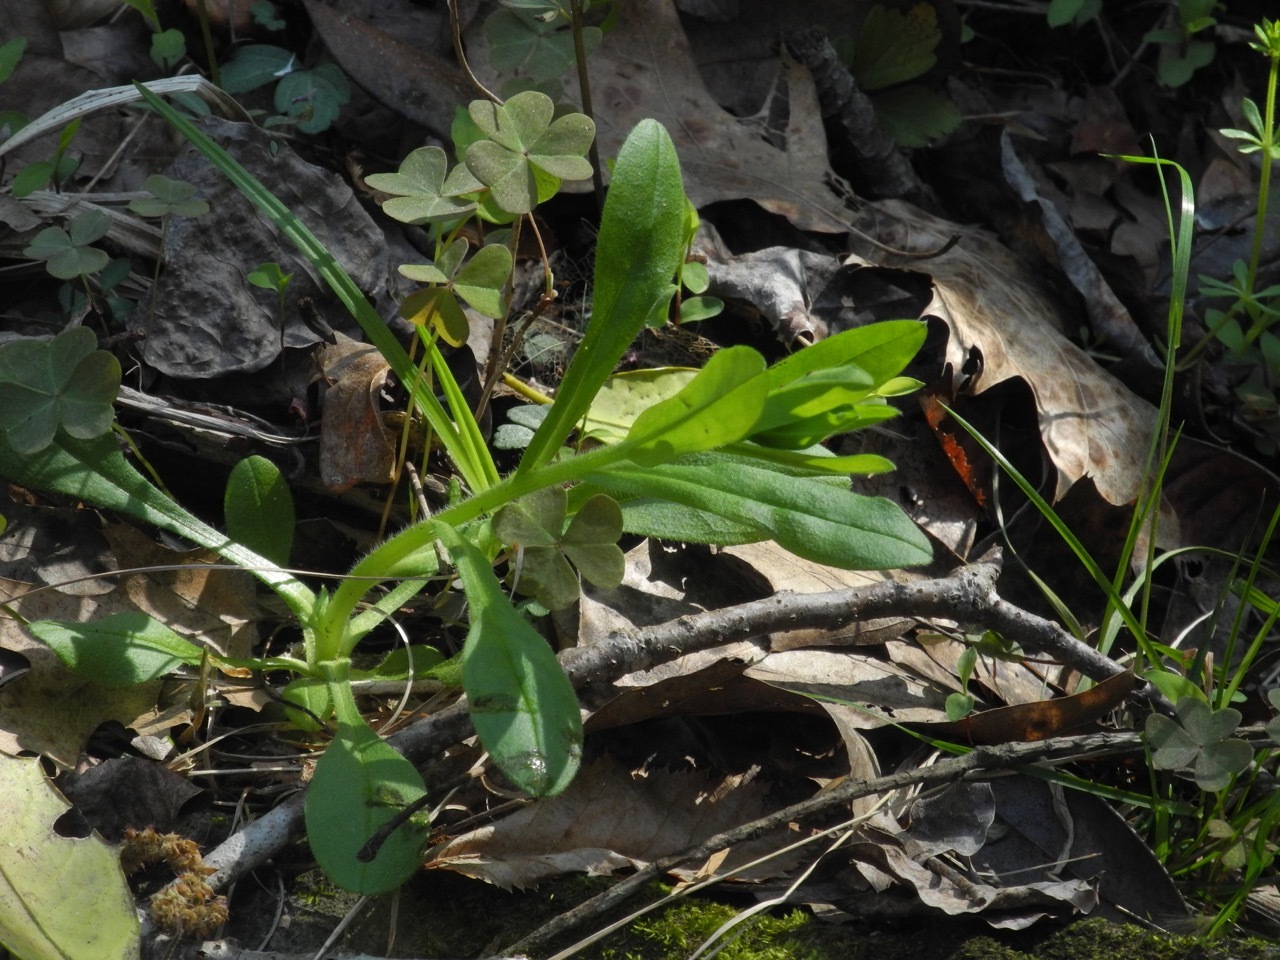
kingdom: Plantae
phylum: Tracheophyta
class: Magnoliopsida
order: Boraginales
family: Boraginaceae
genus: Myosotis
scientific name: Myosotis macrosperma
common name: Large-seed forget-me-not
